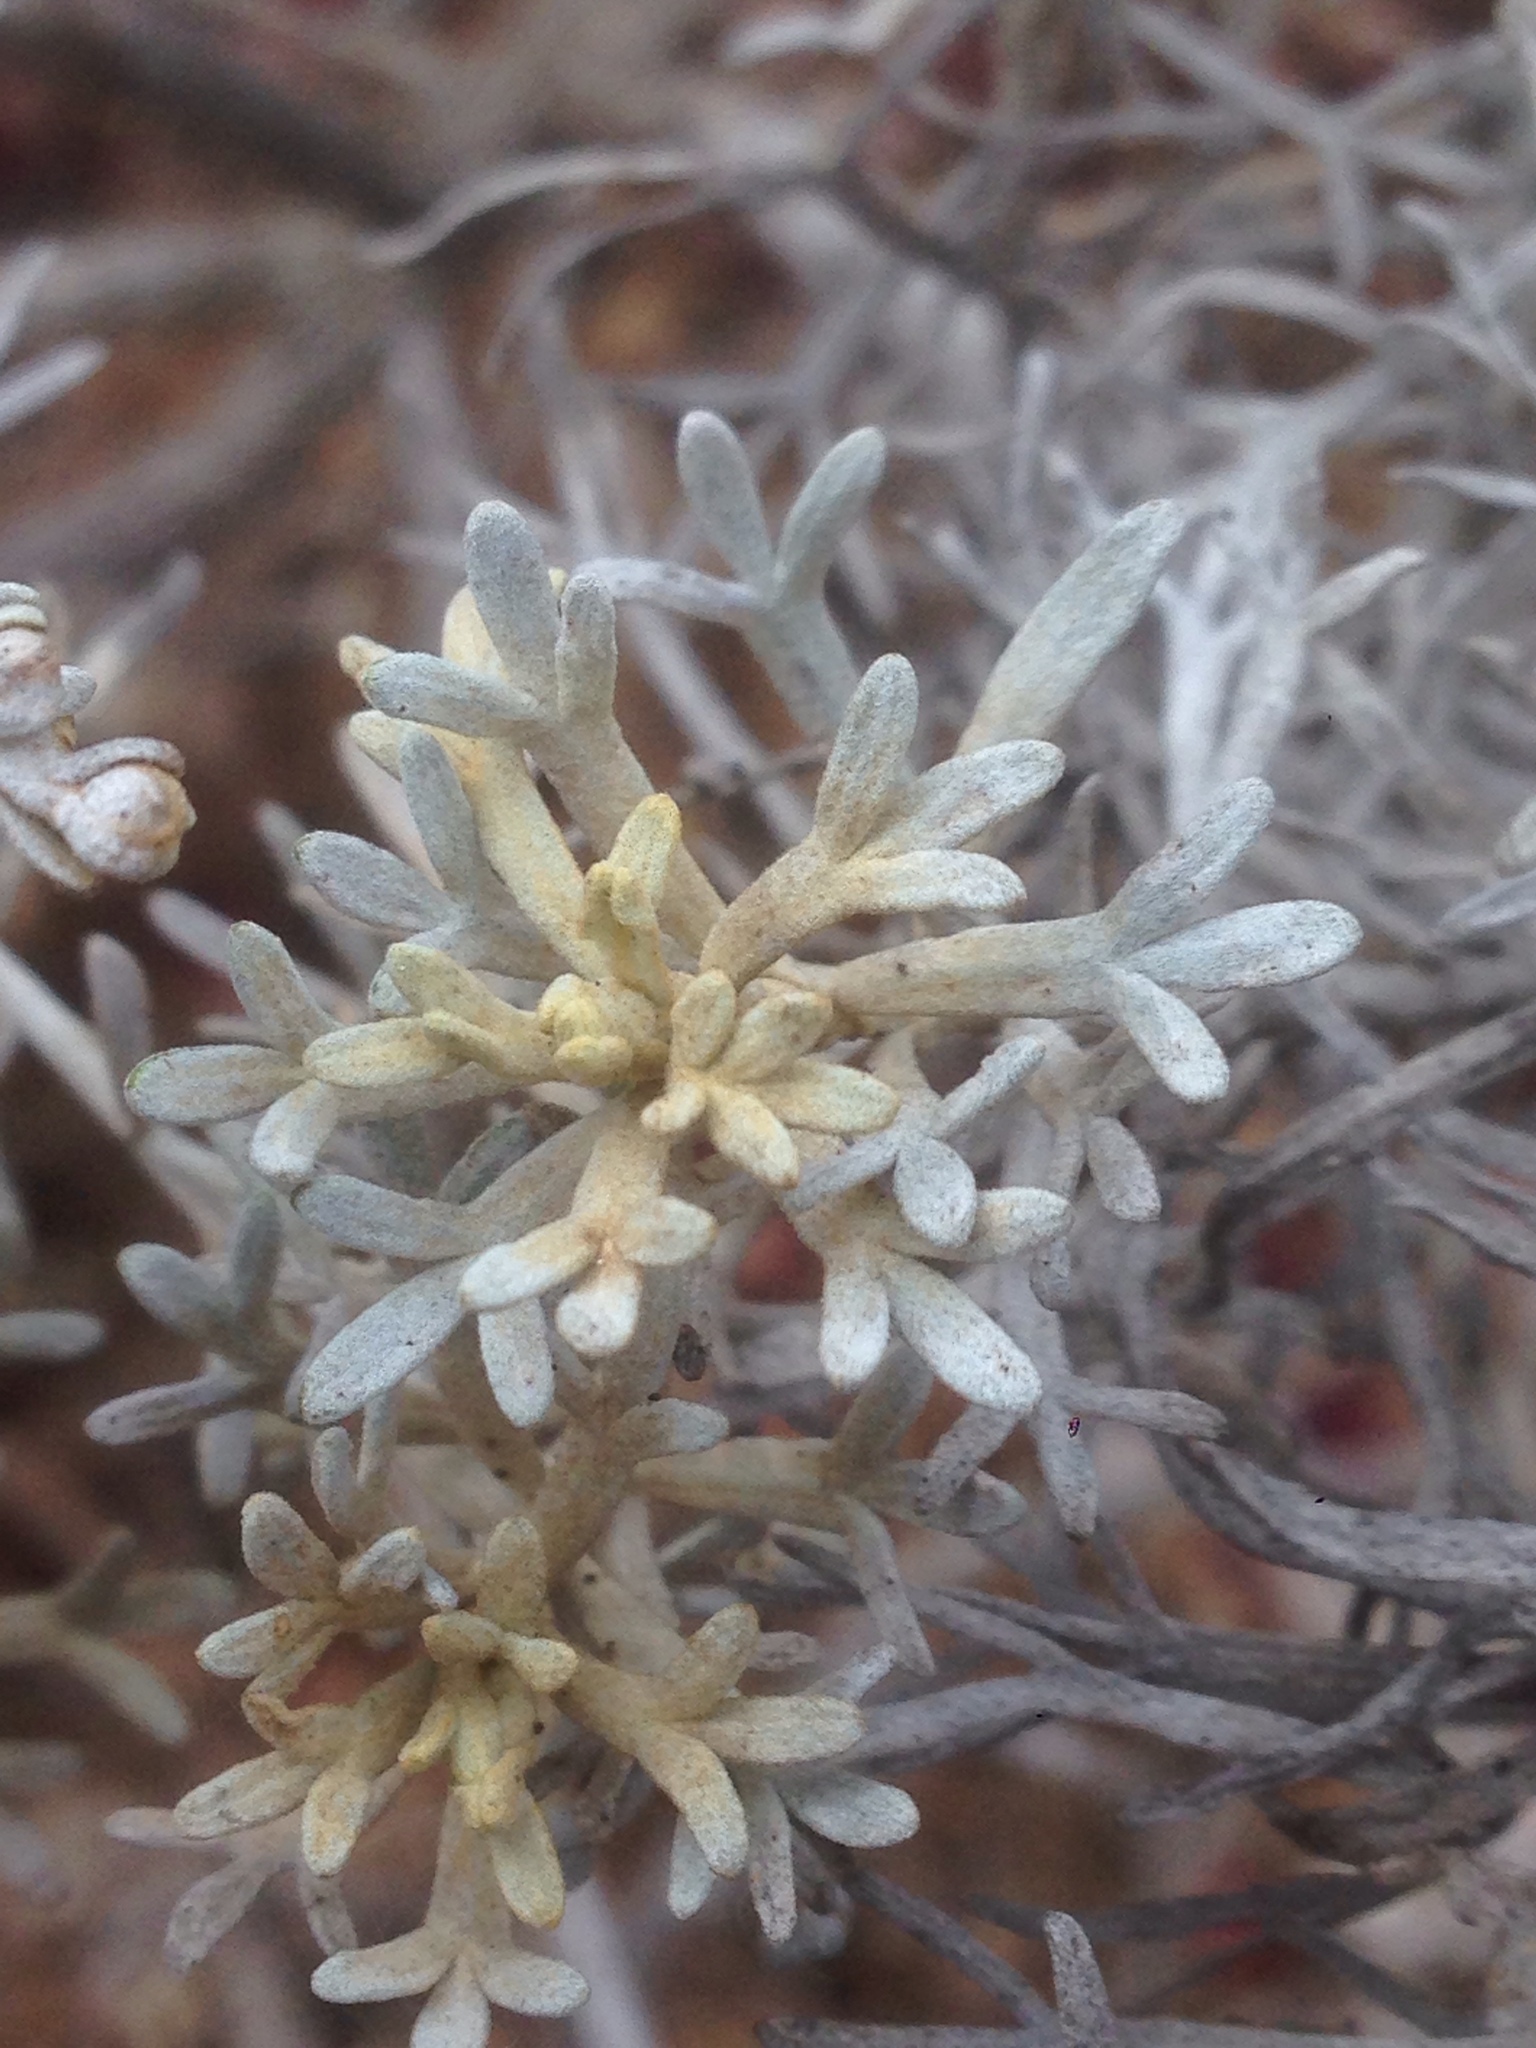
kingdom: Plantae
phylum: Tracheophyta
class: Magnoliopsida
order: Asterales
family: Asteraceae
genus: Artemisia
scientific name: Artemisia nesiotica
